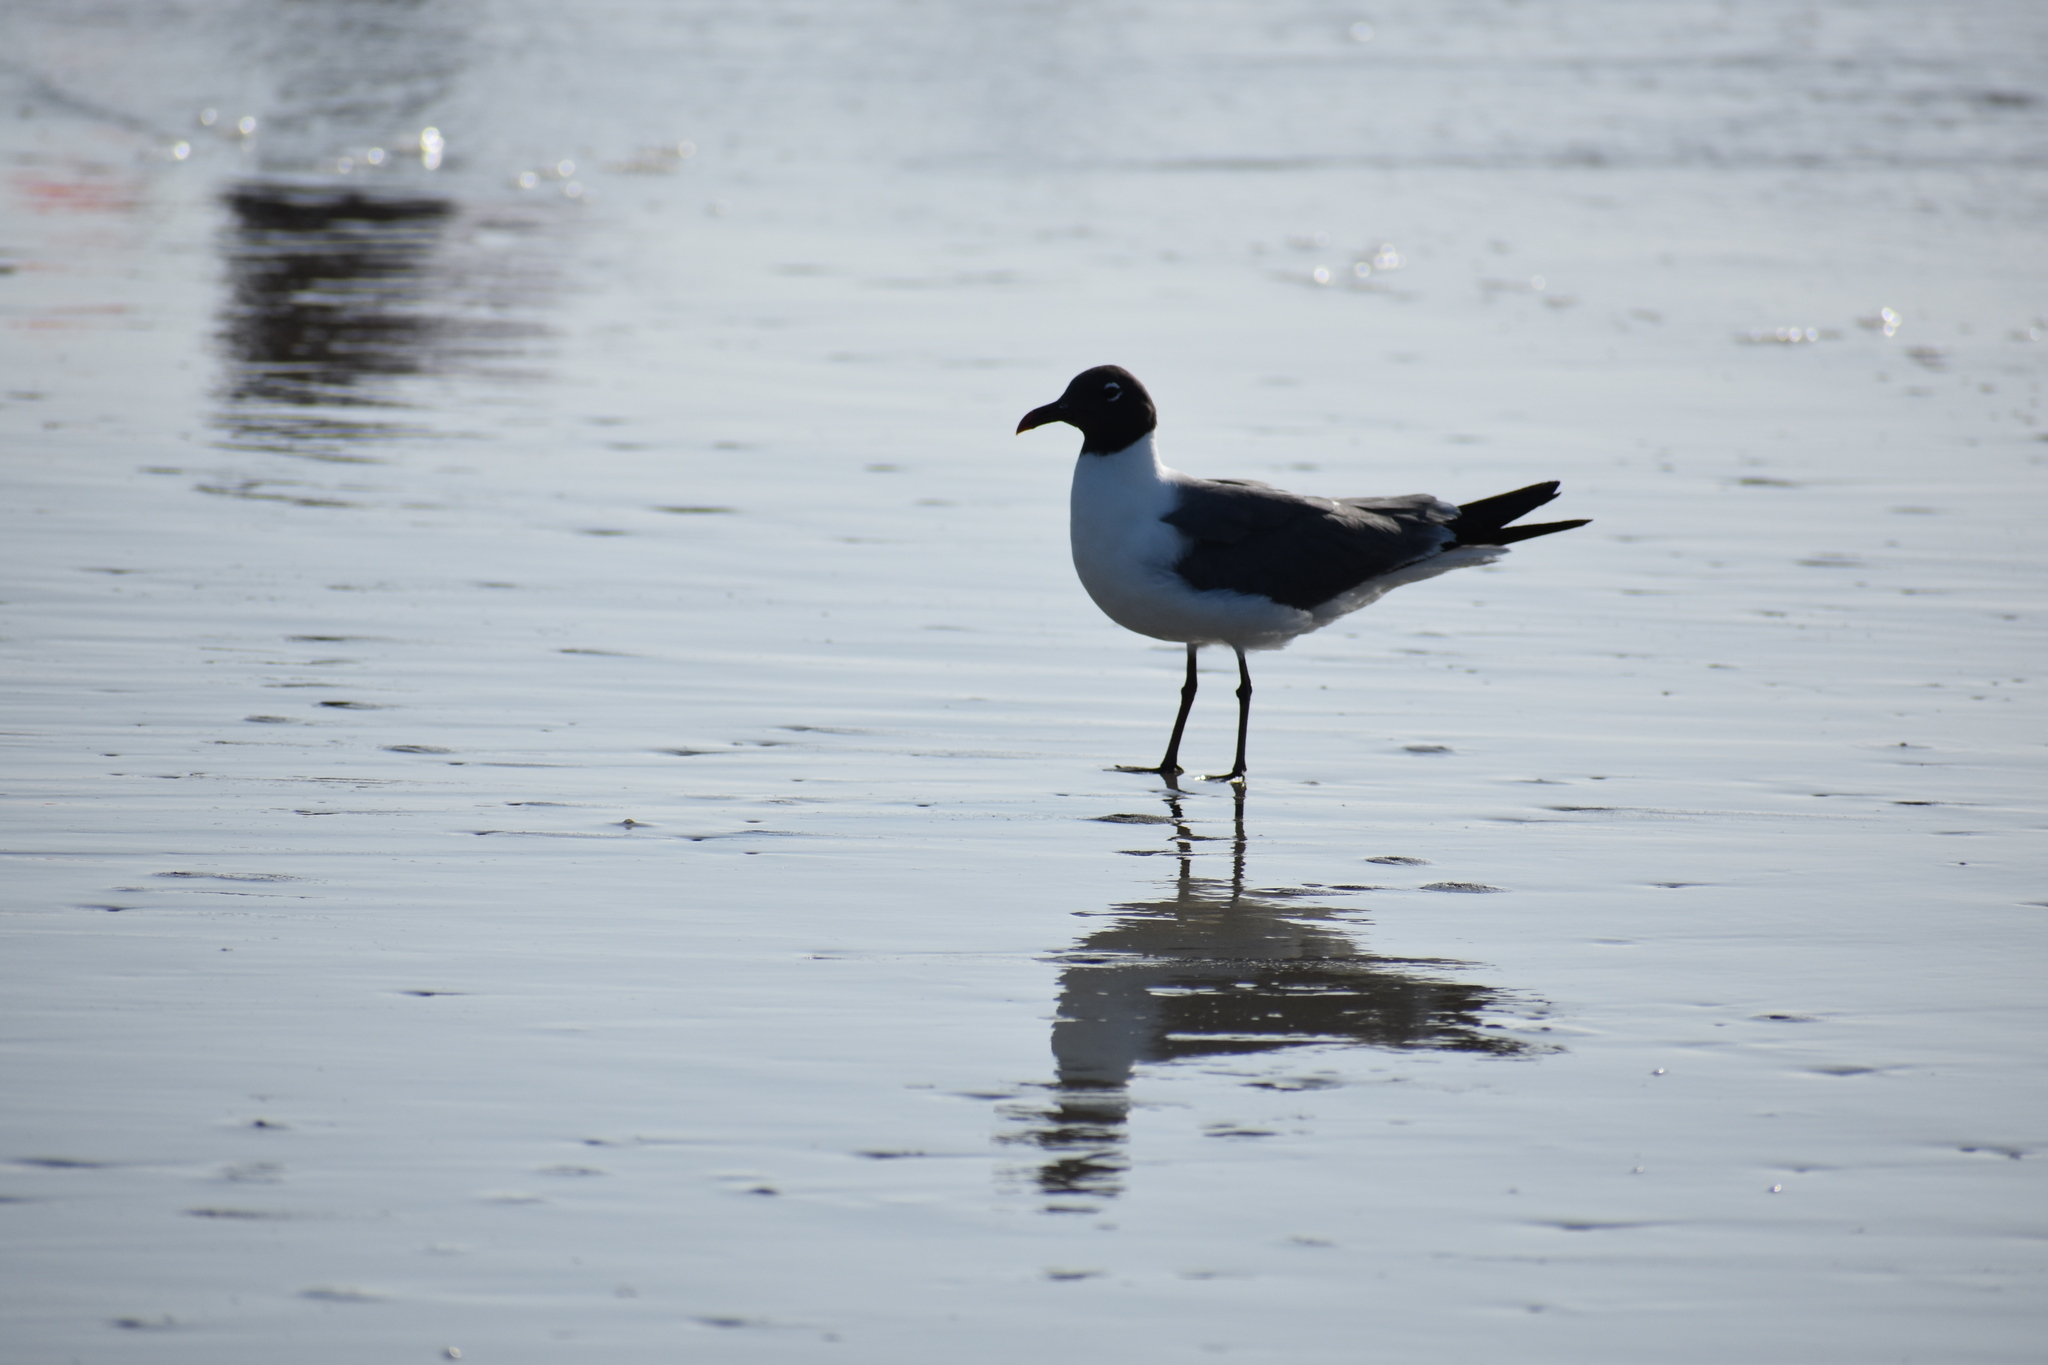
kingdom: Animalia
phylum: Chordata
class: Aves
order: Charadriiformes
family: Laridae
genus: Leucophaeus
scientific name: Leucophaeus atricilla
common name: Laughing gull
